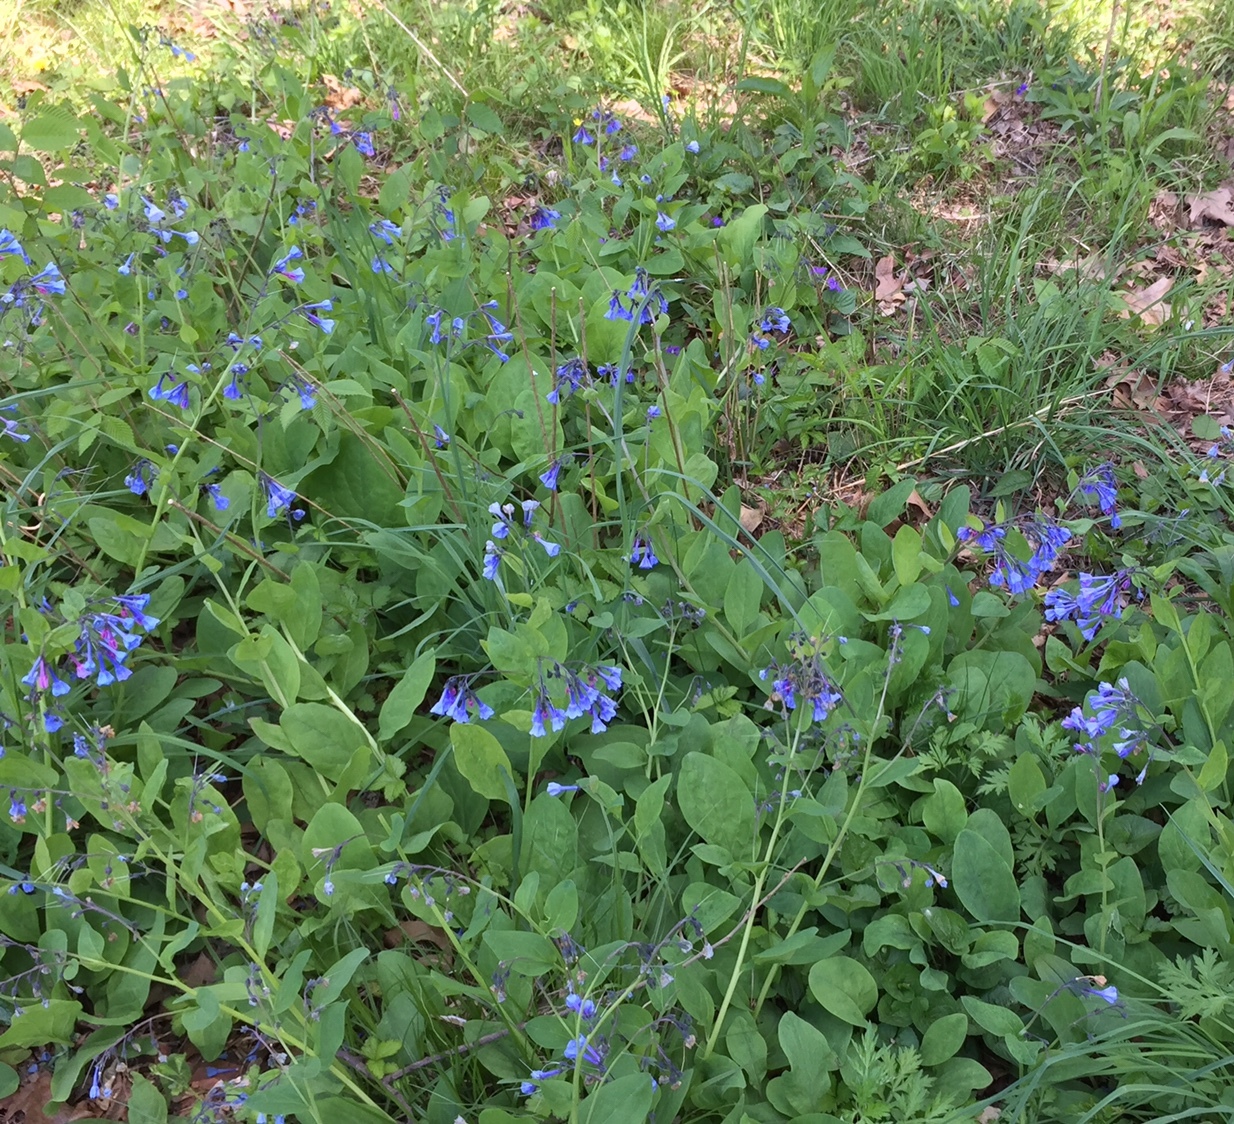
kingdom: Plantae
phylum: Tracheophyta
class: Magnoliopsida
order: Boraginales
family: Boraginaceae
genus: Mertensia
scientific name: Mertensia virginica
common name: Virginia bluebells
